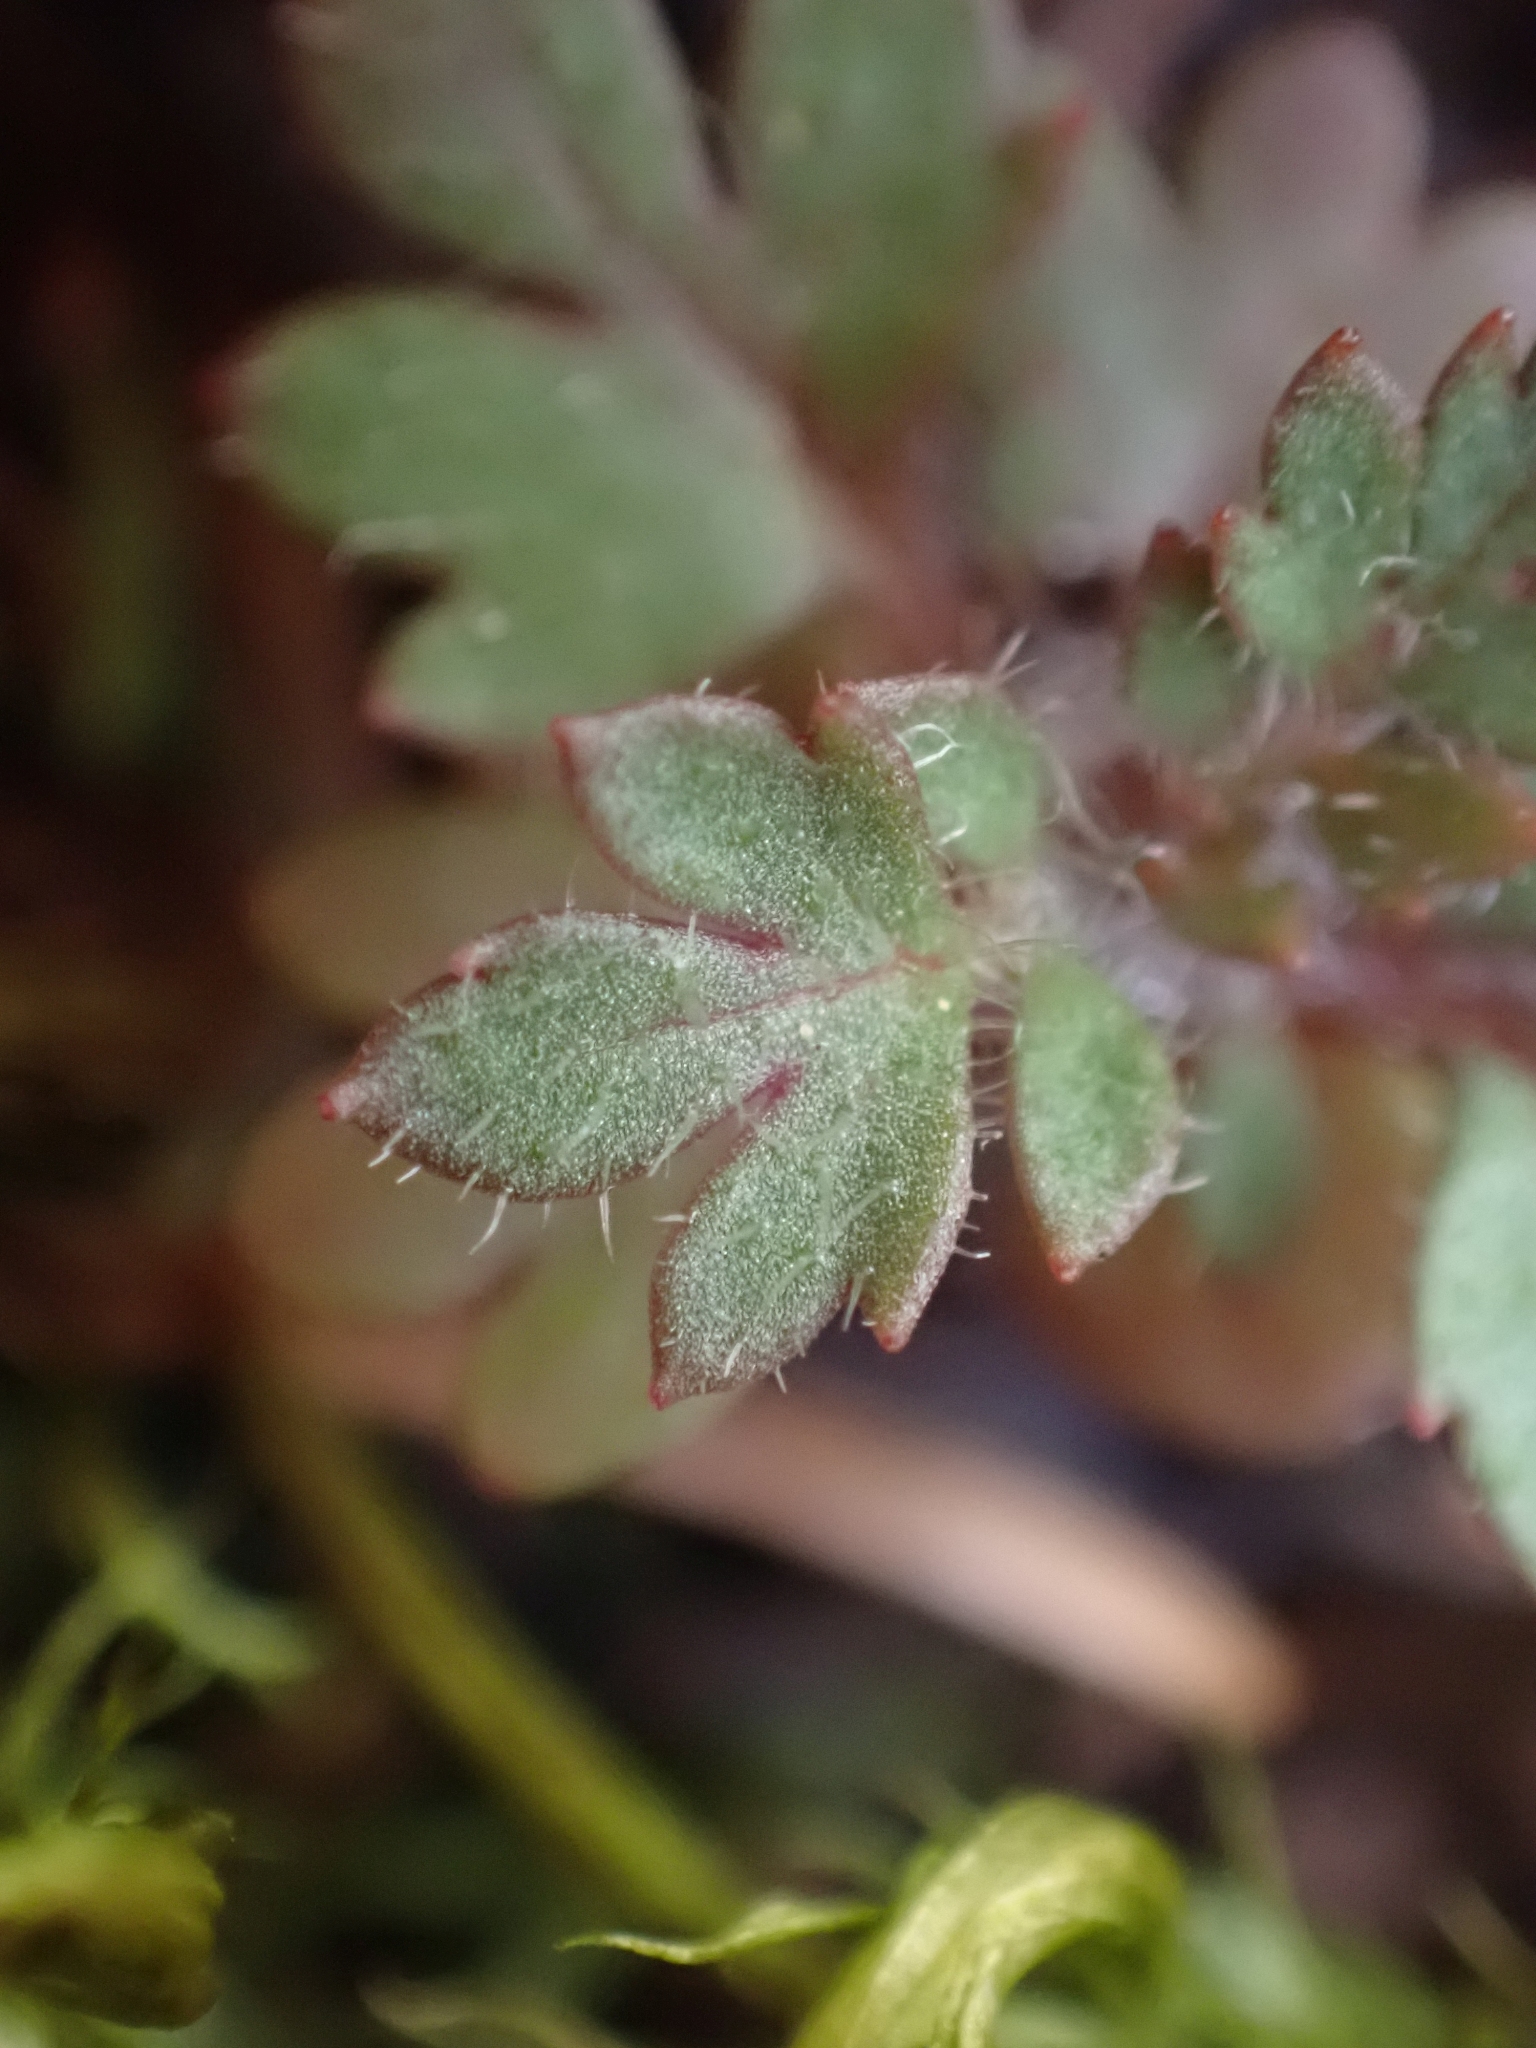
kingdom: Plantae
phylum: Tracheophyta
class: Magnoliopsida
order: Ericales
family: Polemoniaceae
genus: Collomia
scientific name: Collomia heterophylla
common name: Variable-leaved collomia
